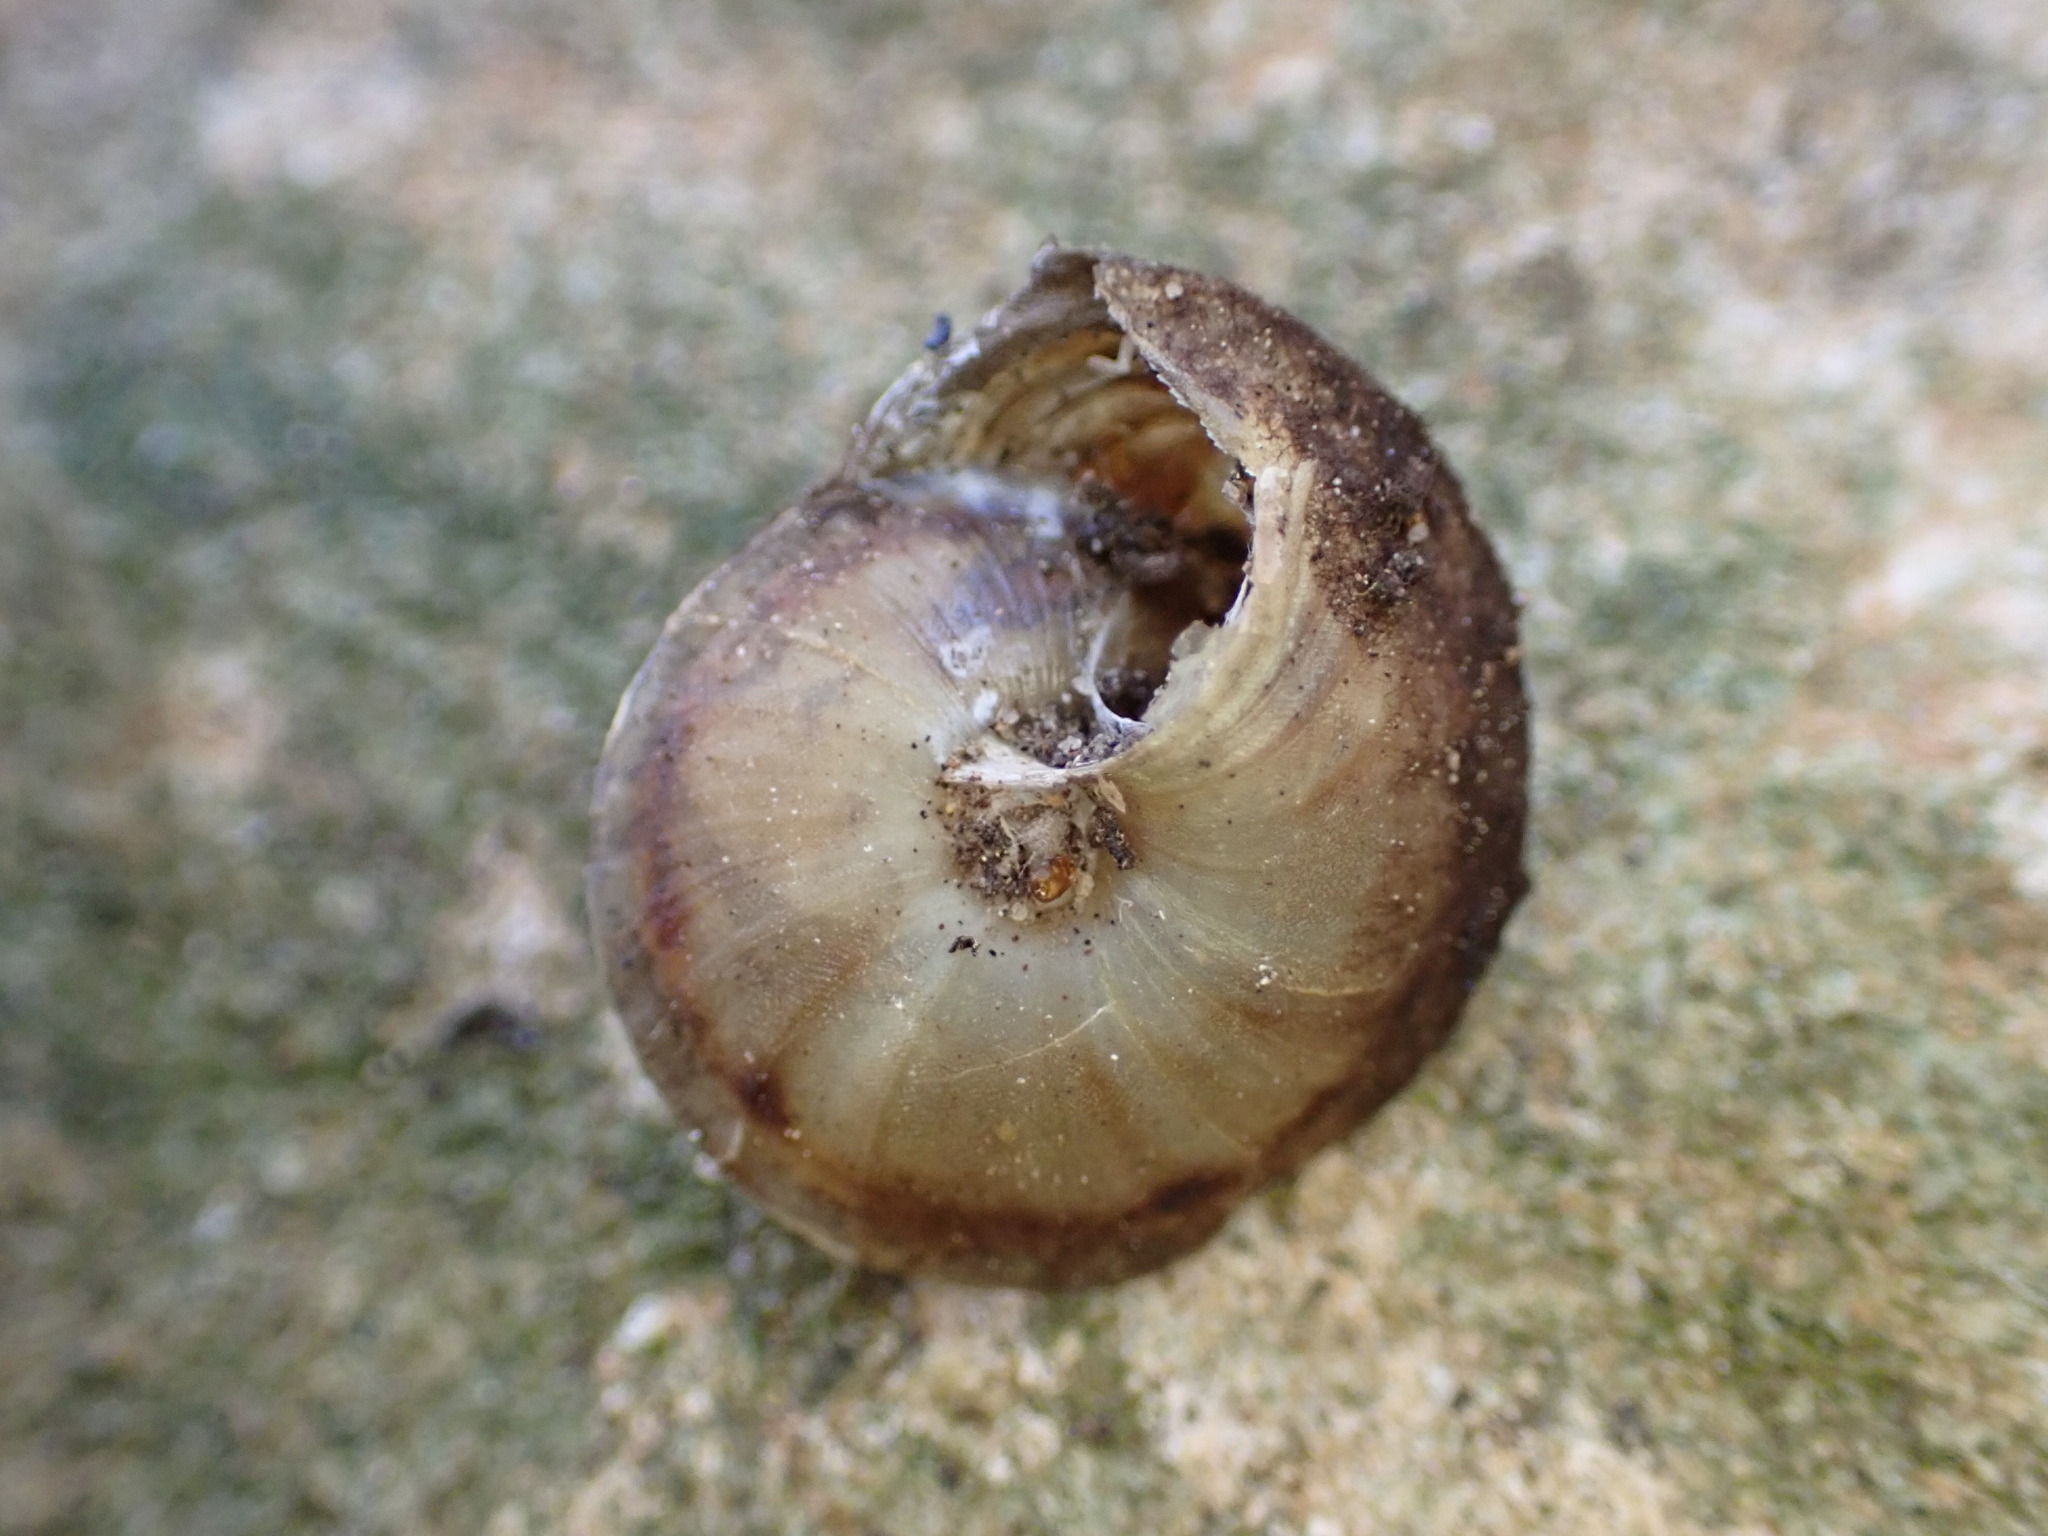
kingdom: Animalia
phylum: Mollusca
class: Gastropoda
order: Stylommatophora
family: Helicidae
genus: Helicigona
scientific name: Helicigona lapicida
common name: Lapidary snail
